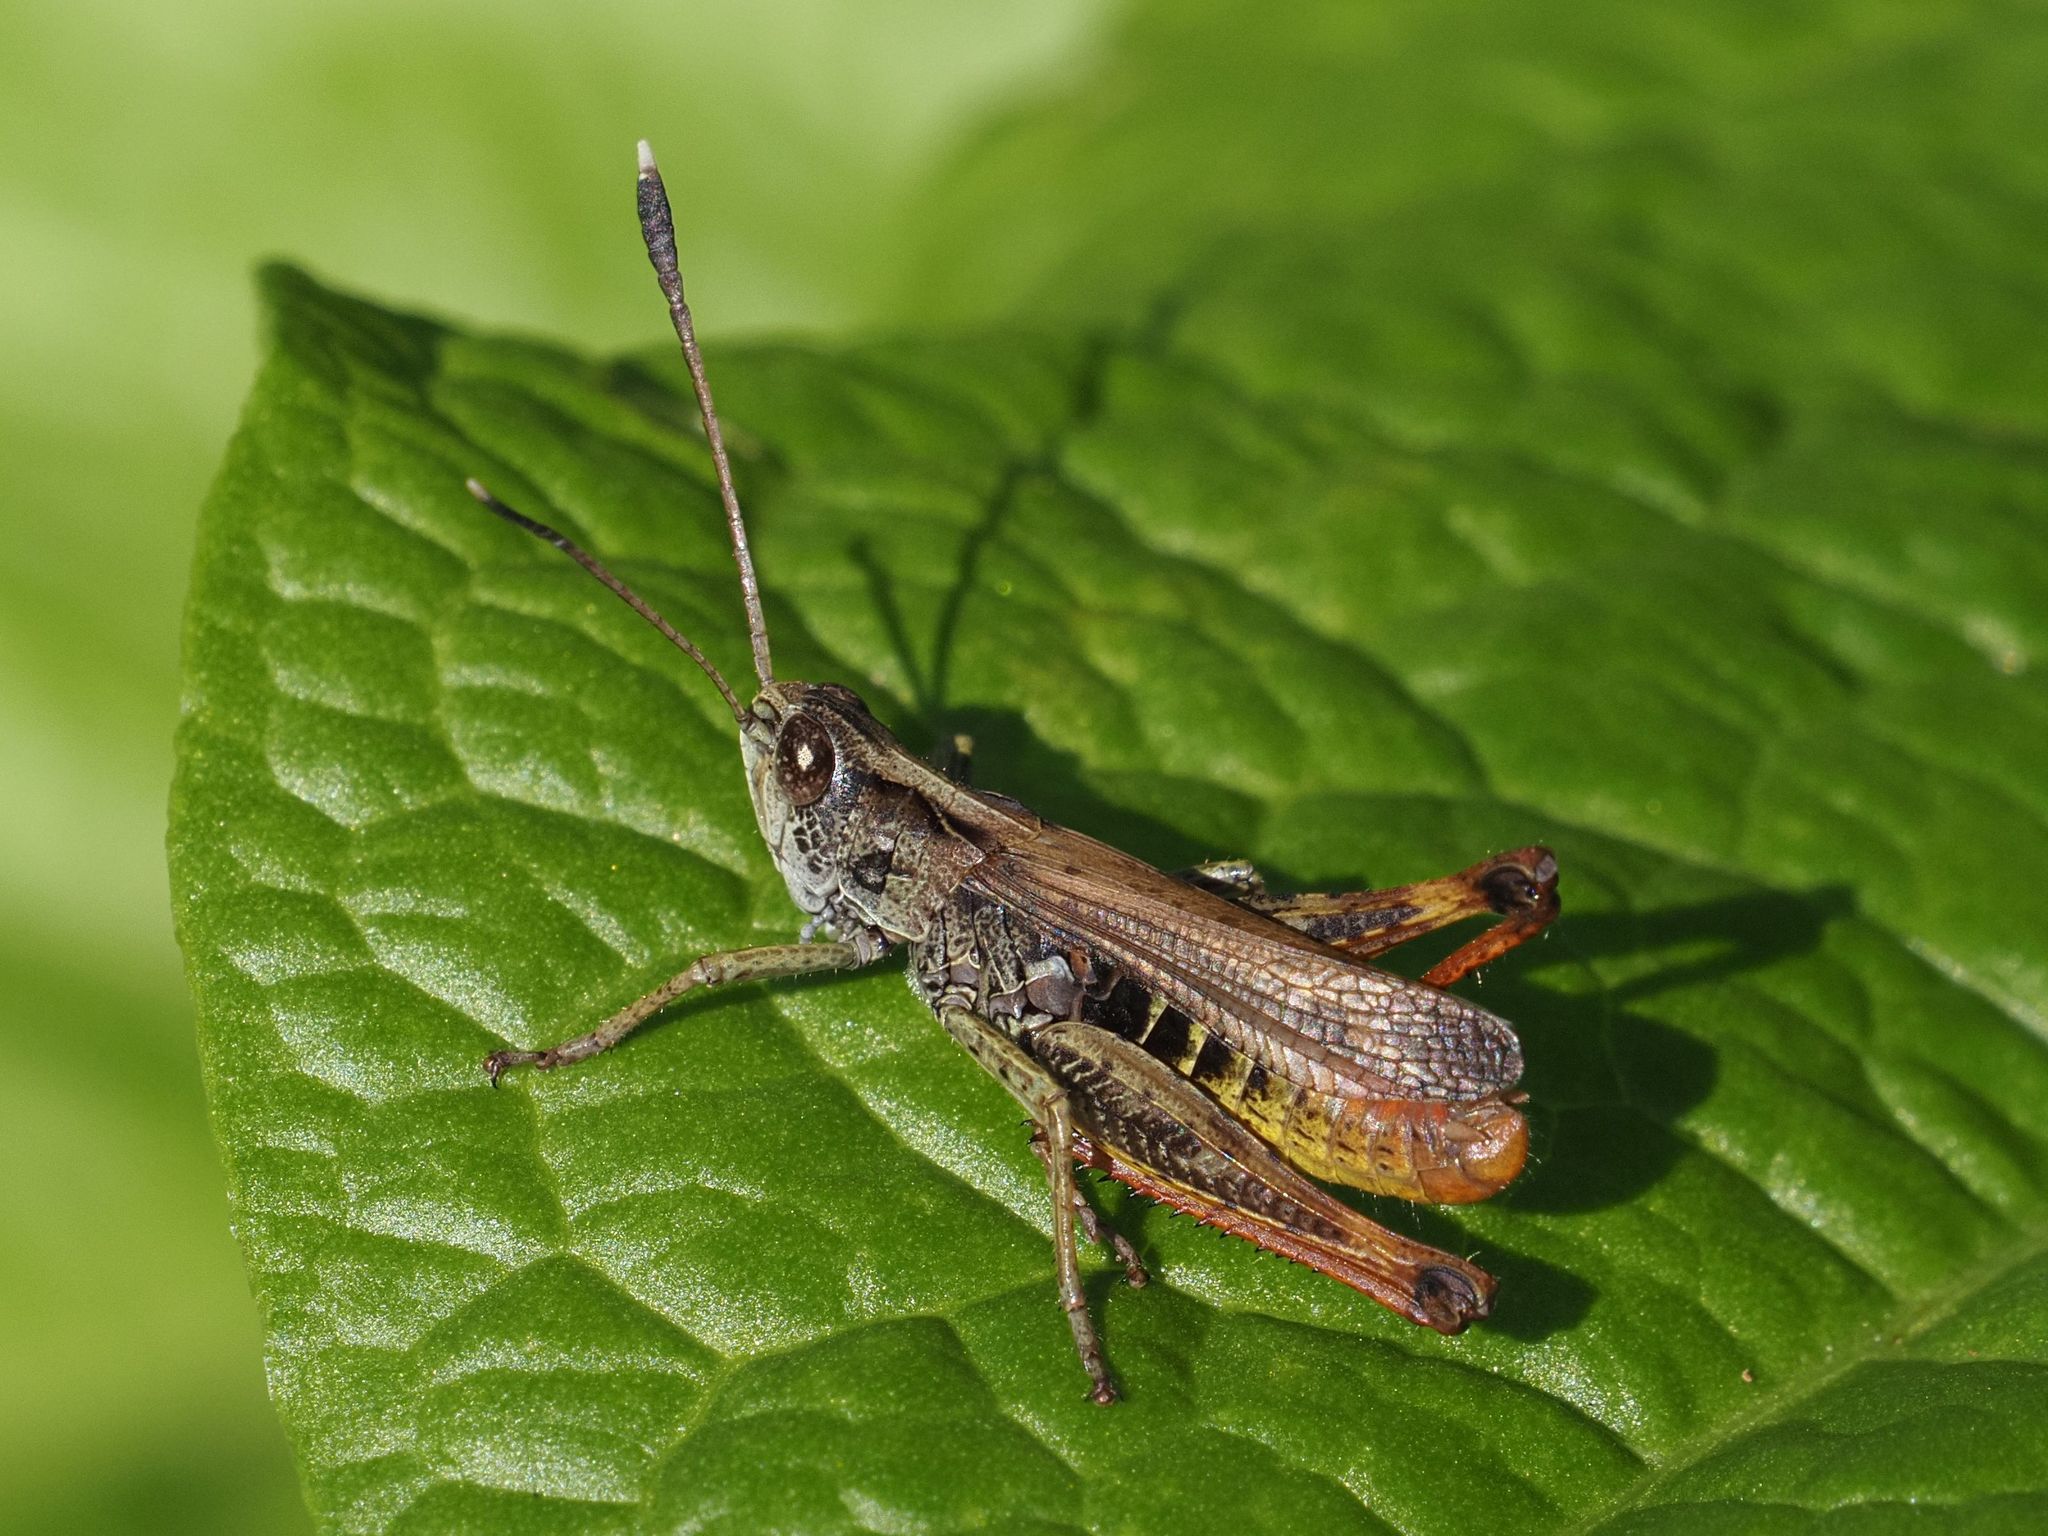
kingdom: Animalia
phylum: Arthropoda
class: Insecta
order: Orthoptera
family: Acrididae
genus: Gomphocerippus
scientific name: Gomphocerippus rufus
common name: Rufous grasshopper
